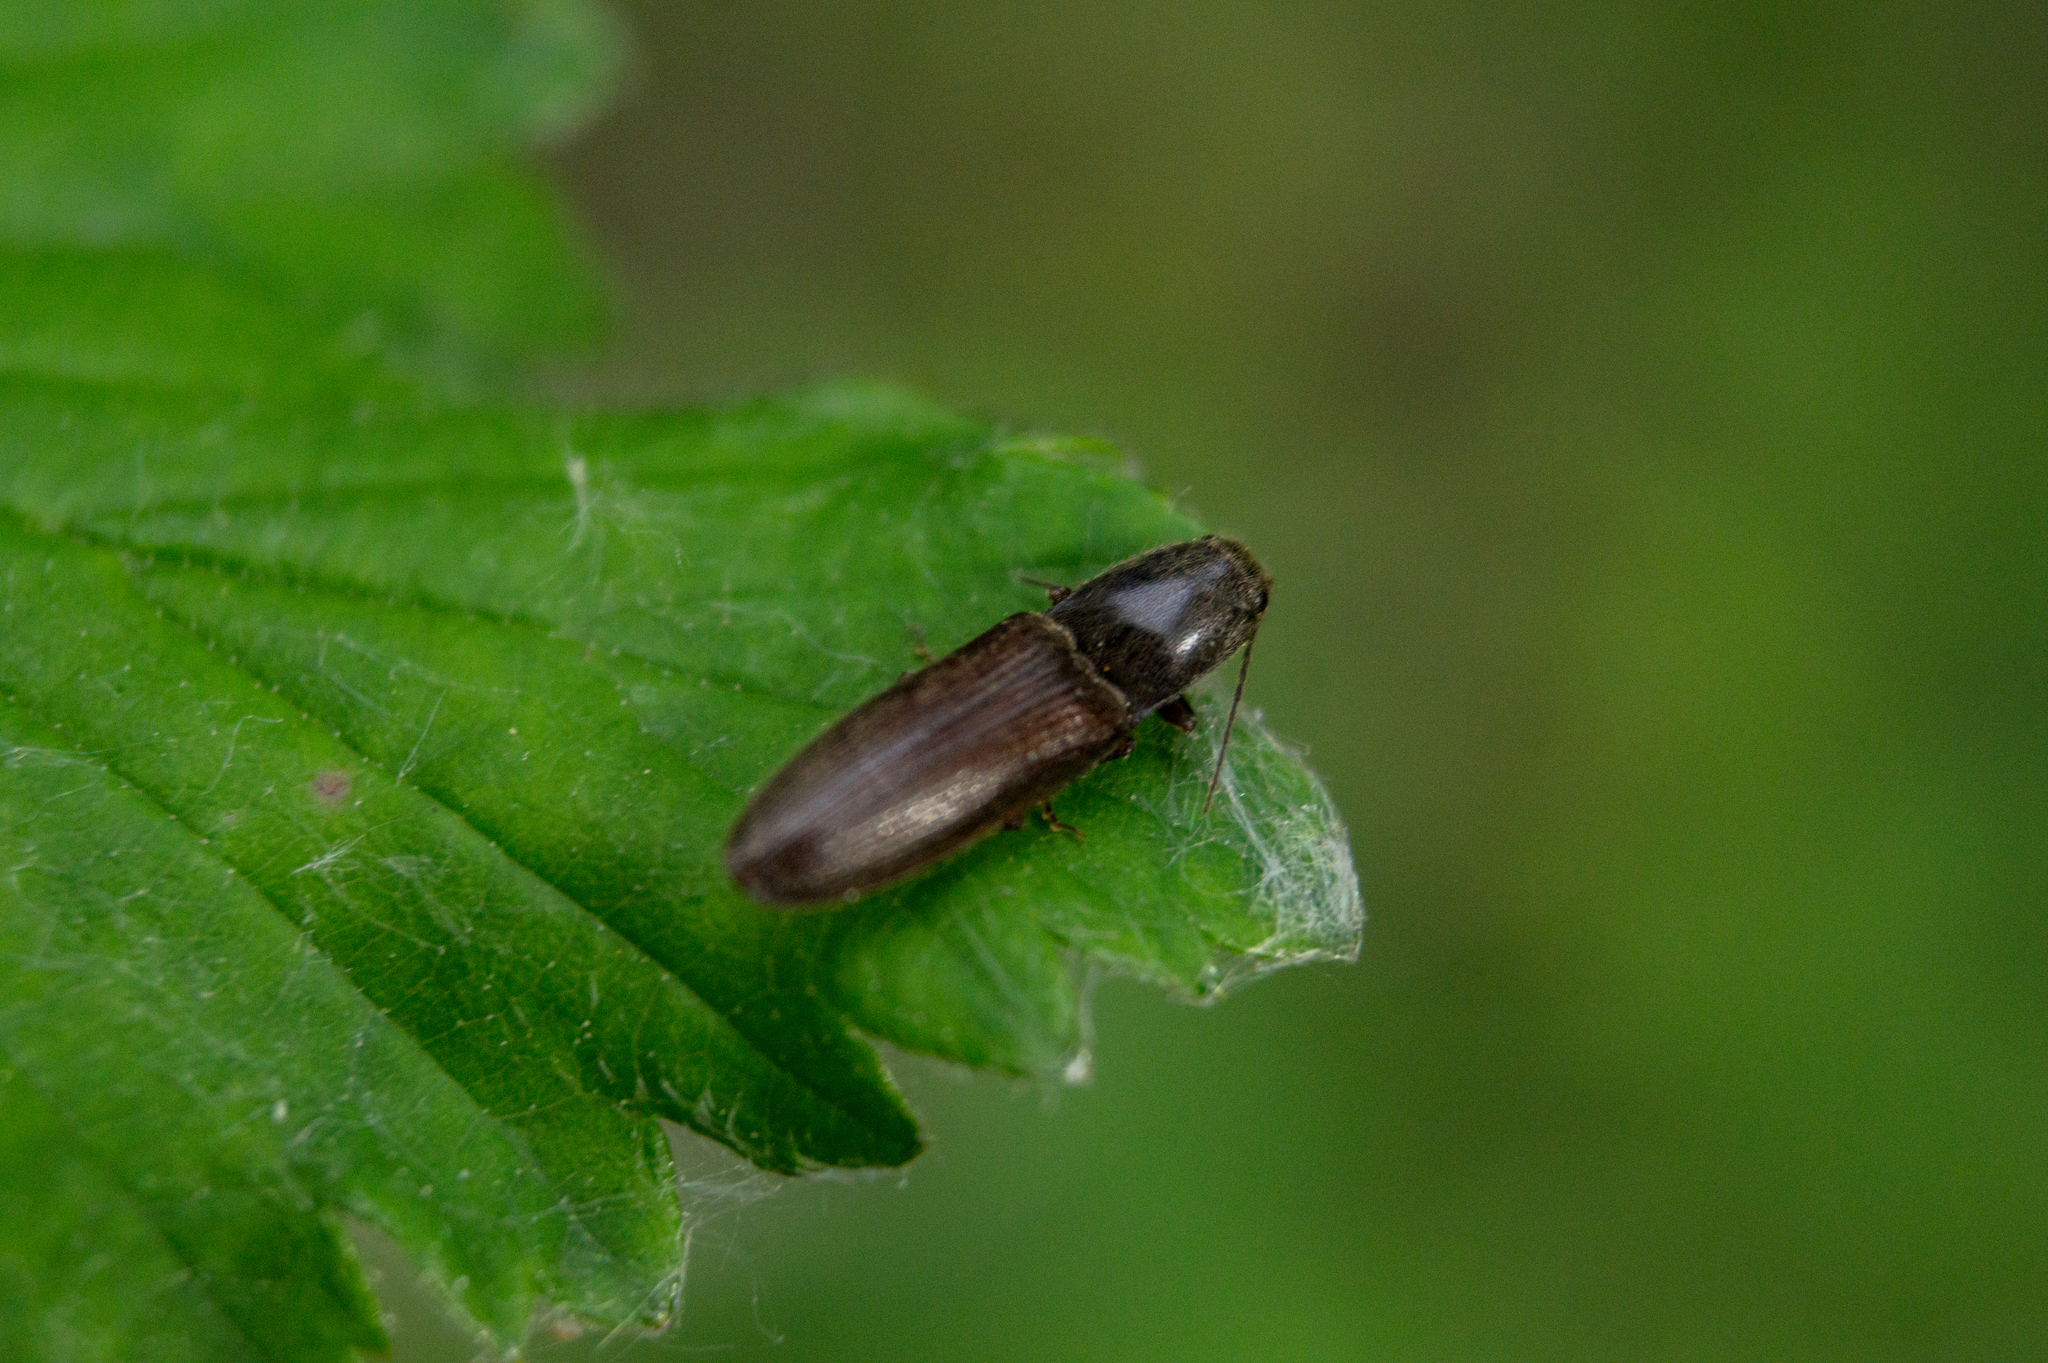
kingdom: Animalia
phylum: Arthropoda
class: Insecta
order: Coleoptera
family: Elateridae
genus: Athous
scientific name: Athous haemorrhoidalis
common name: Red-brown click beetle
